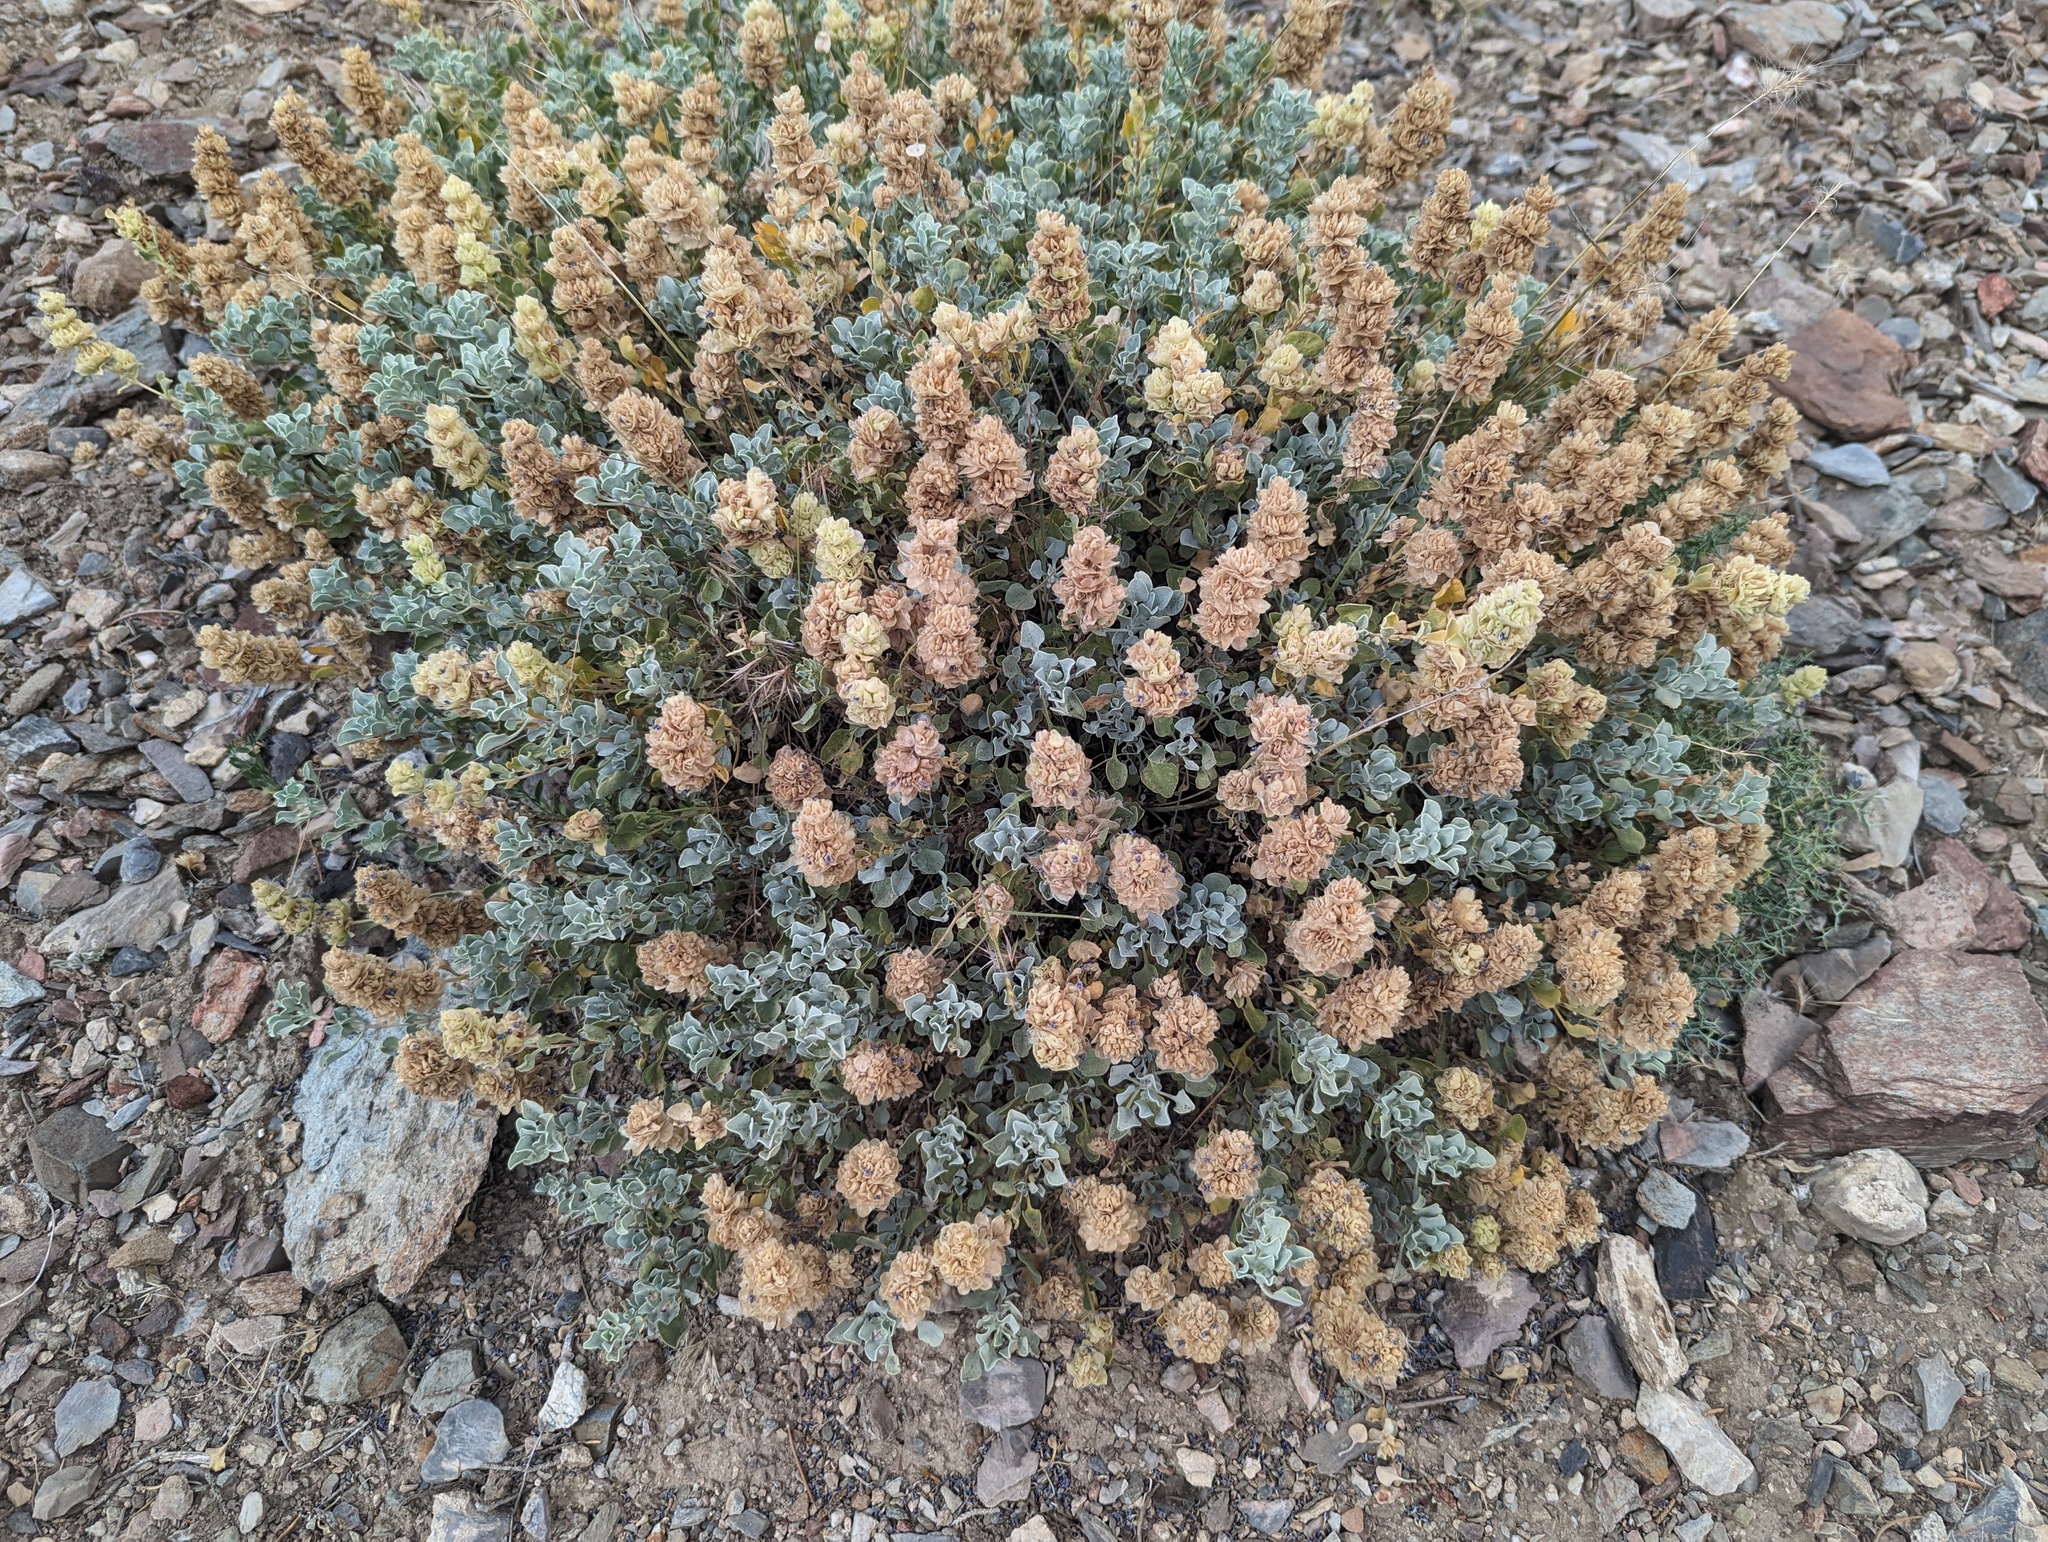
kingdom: Plantae
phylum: Tracheophyta
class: Magnoliopsida
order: Lamiales
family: Lamiaceae
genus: Salvia
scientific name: Salvia dorrii
